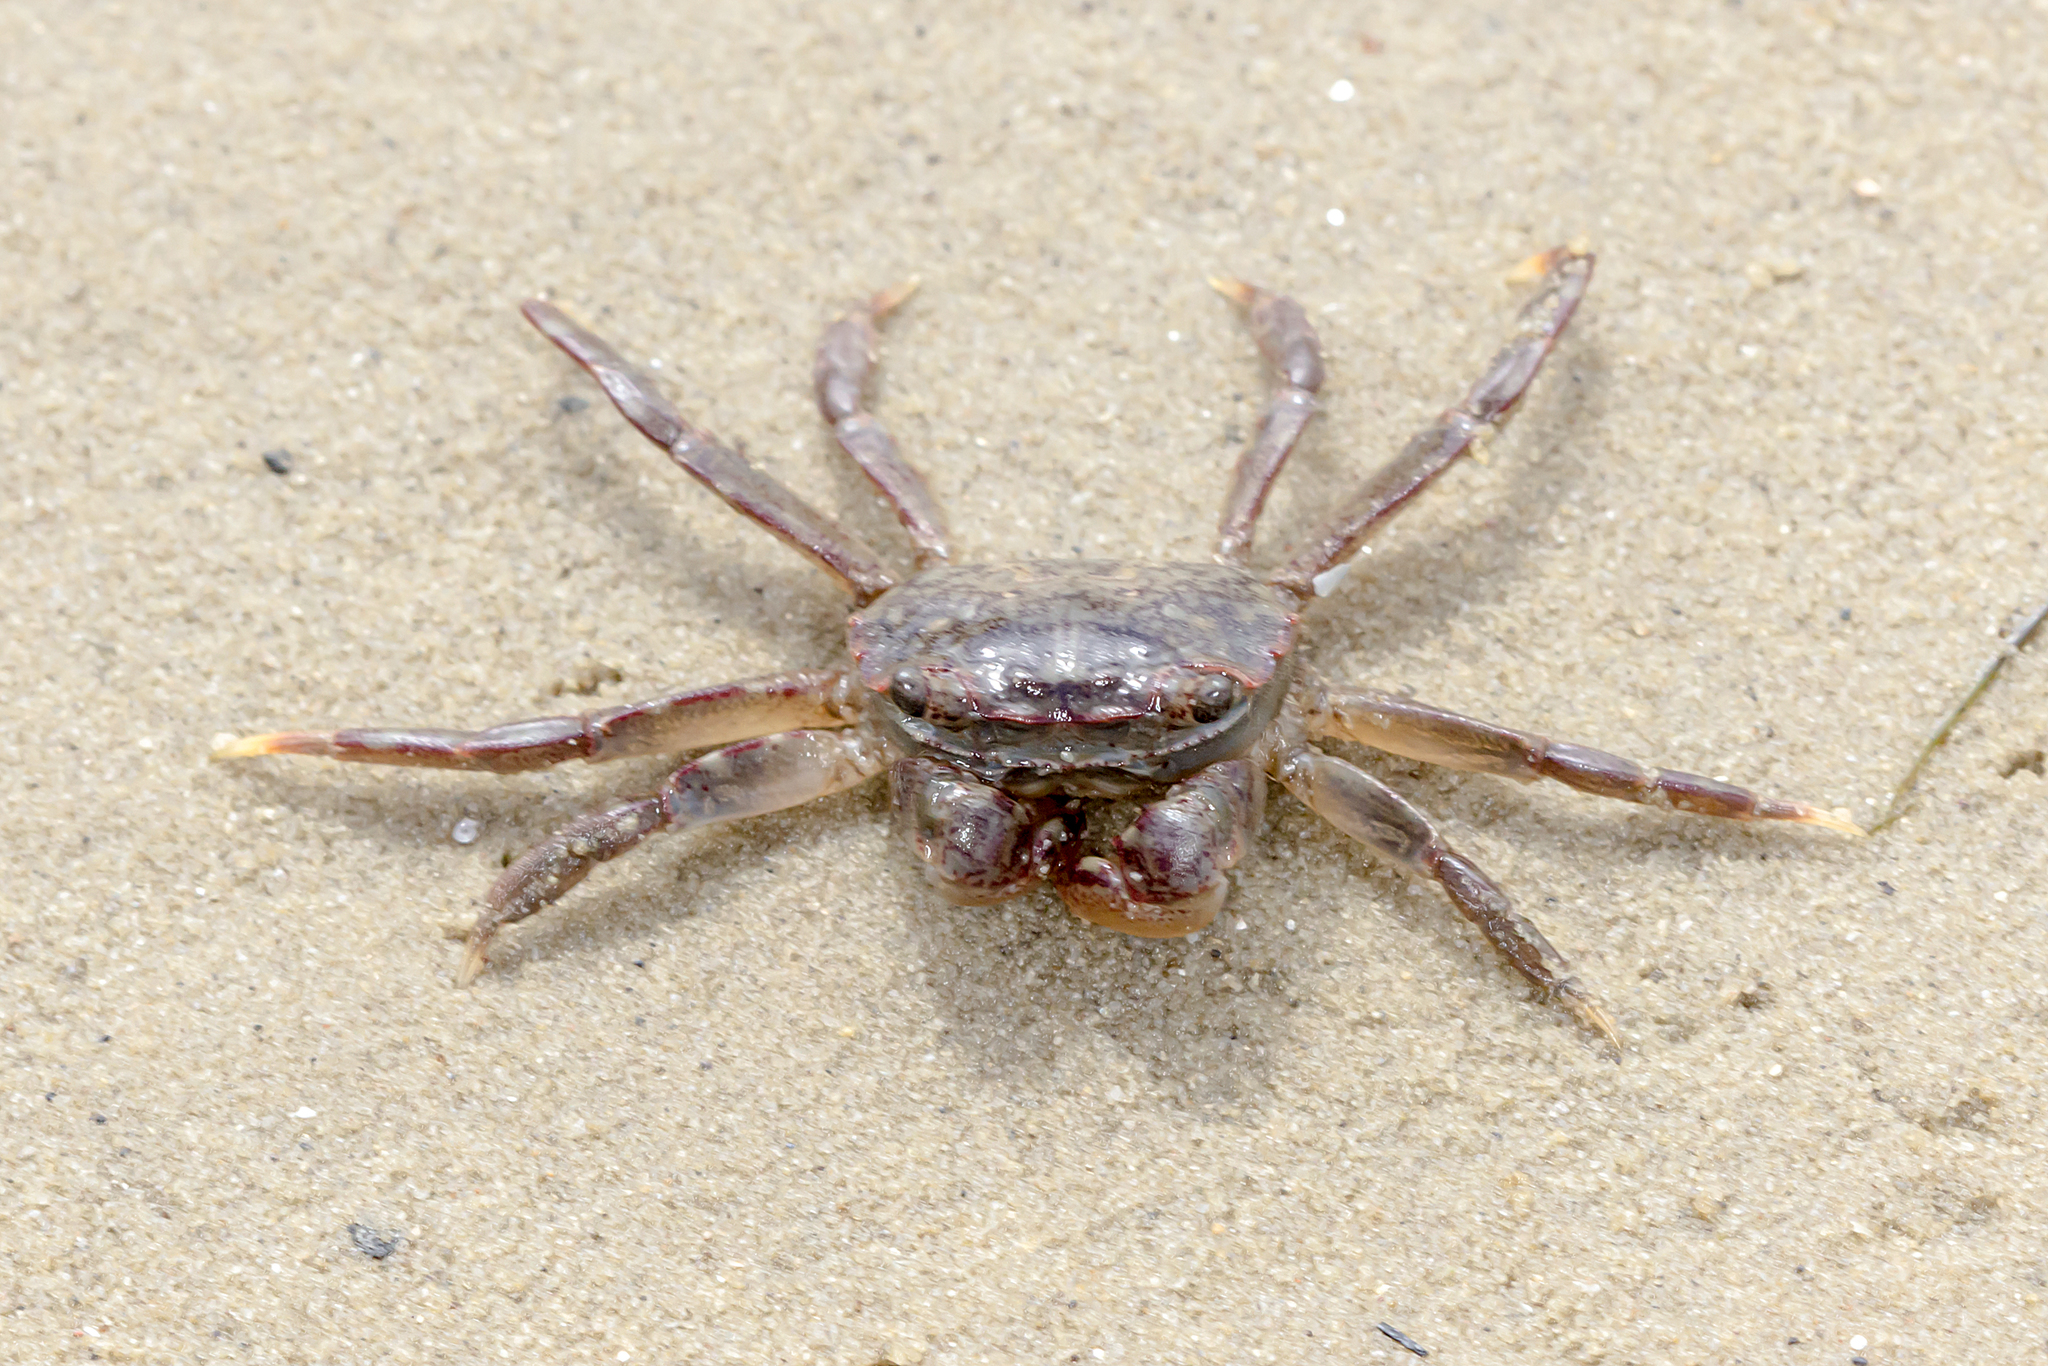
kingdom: Animalia
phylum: Arthropoda
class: Malacostraca
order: Decapoda
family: Varunidae
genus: Paragrapsus
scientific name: Paragrapsus laevis
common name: Smooth shore crab
